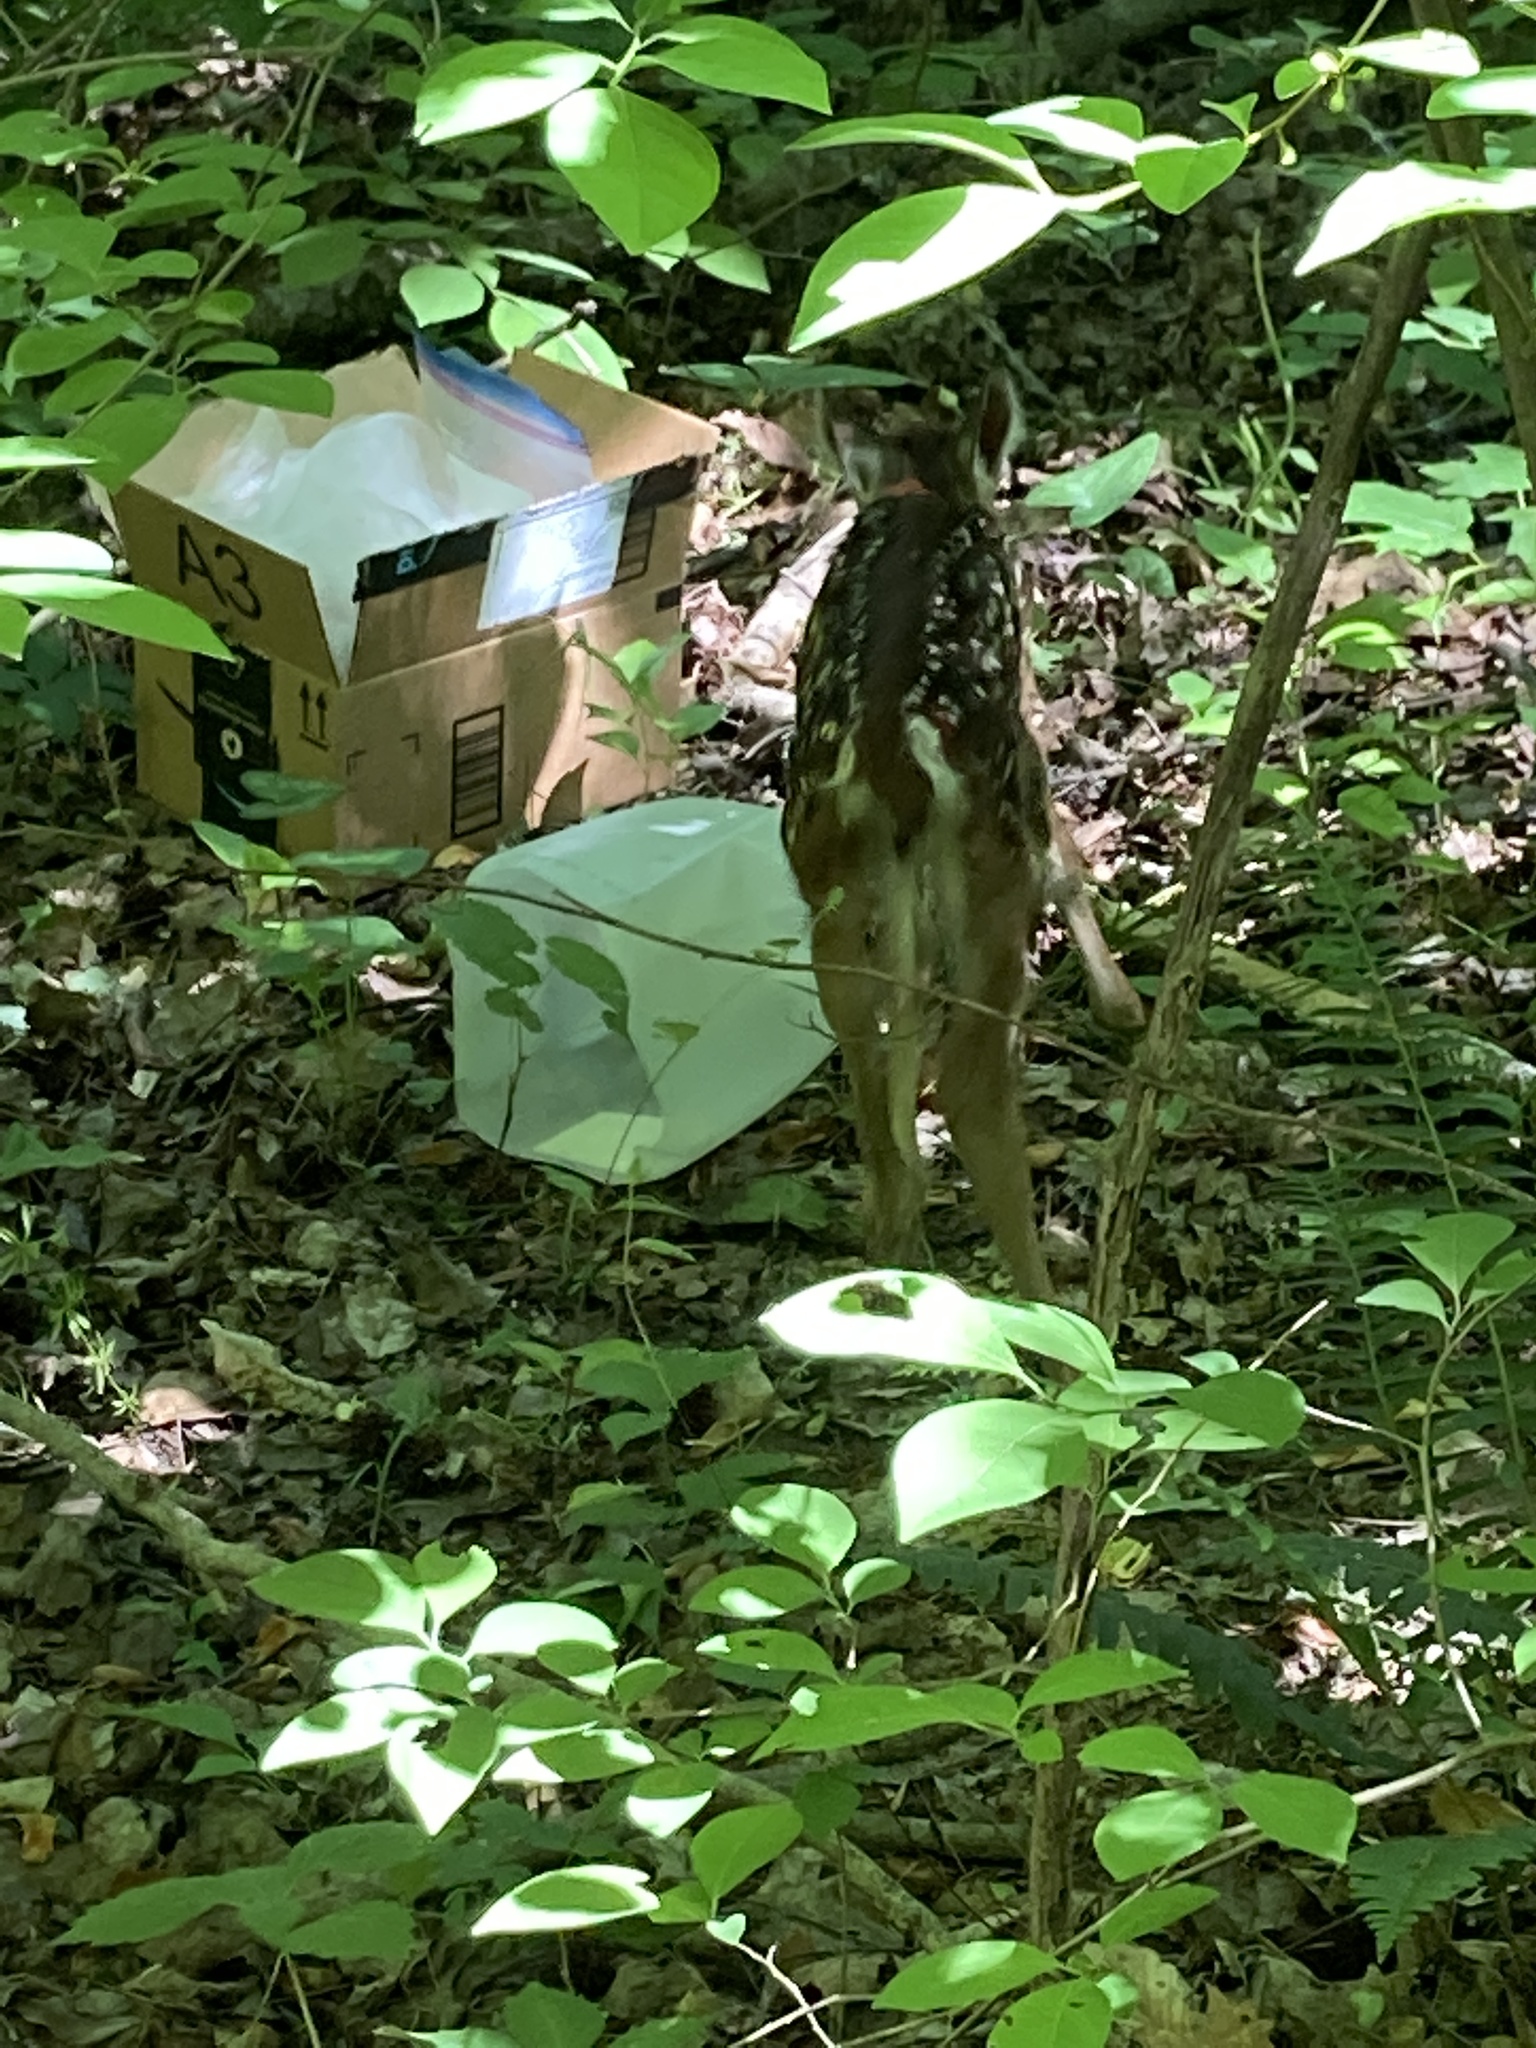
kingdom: Animalia
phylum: Chordata
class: Mammalia
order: Artiodactyla
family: Cervidae
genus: Odocoileus
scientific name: Odocoileus virginianus
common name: White-tailed deer
